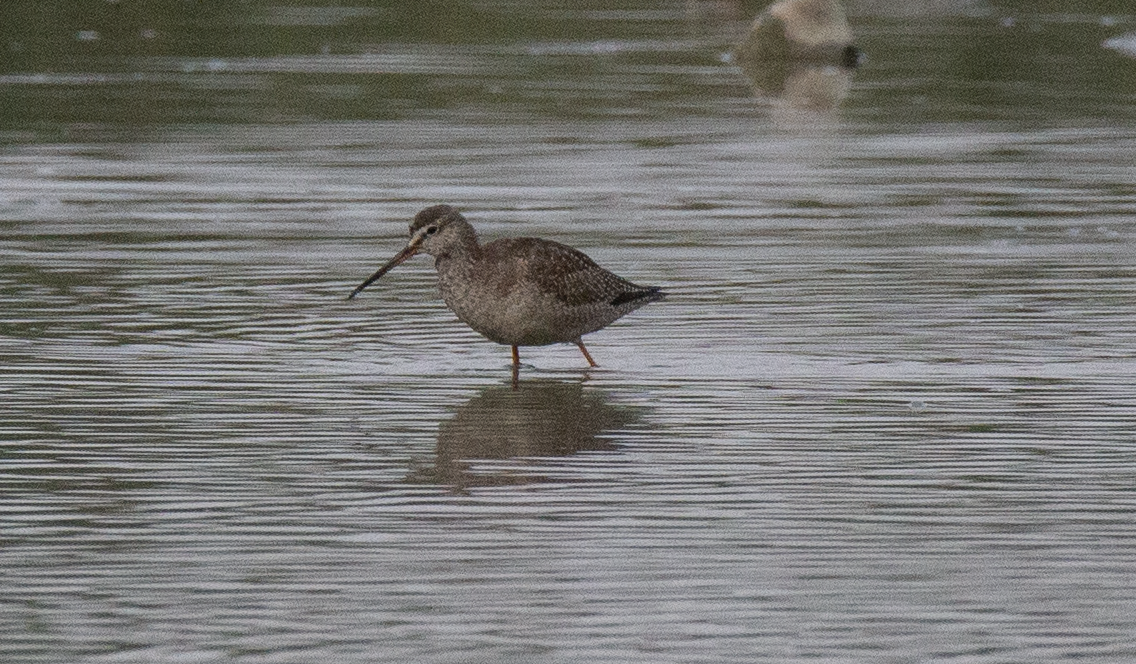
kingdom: Animalia
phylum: Chordata
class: Aves
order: Charadriiformes
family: Scolopacidae
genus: Tringa
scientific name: Tringa erythropus
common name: Spotted redshank
